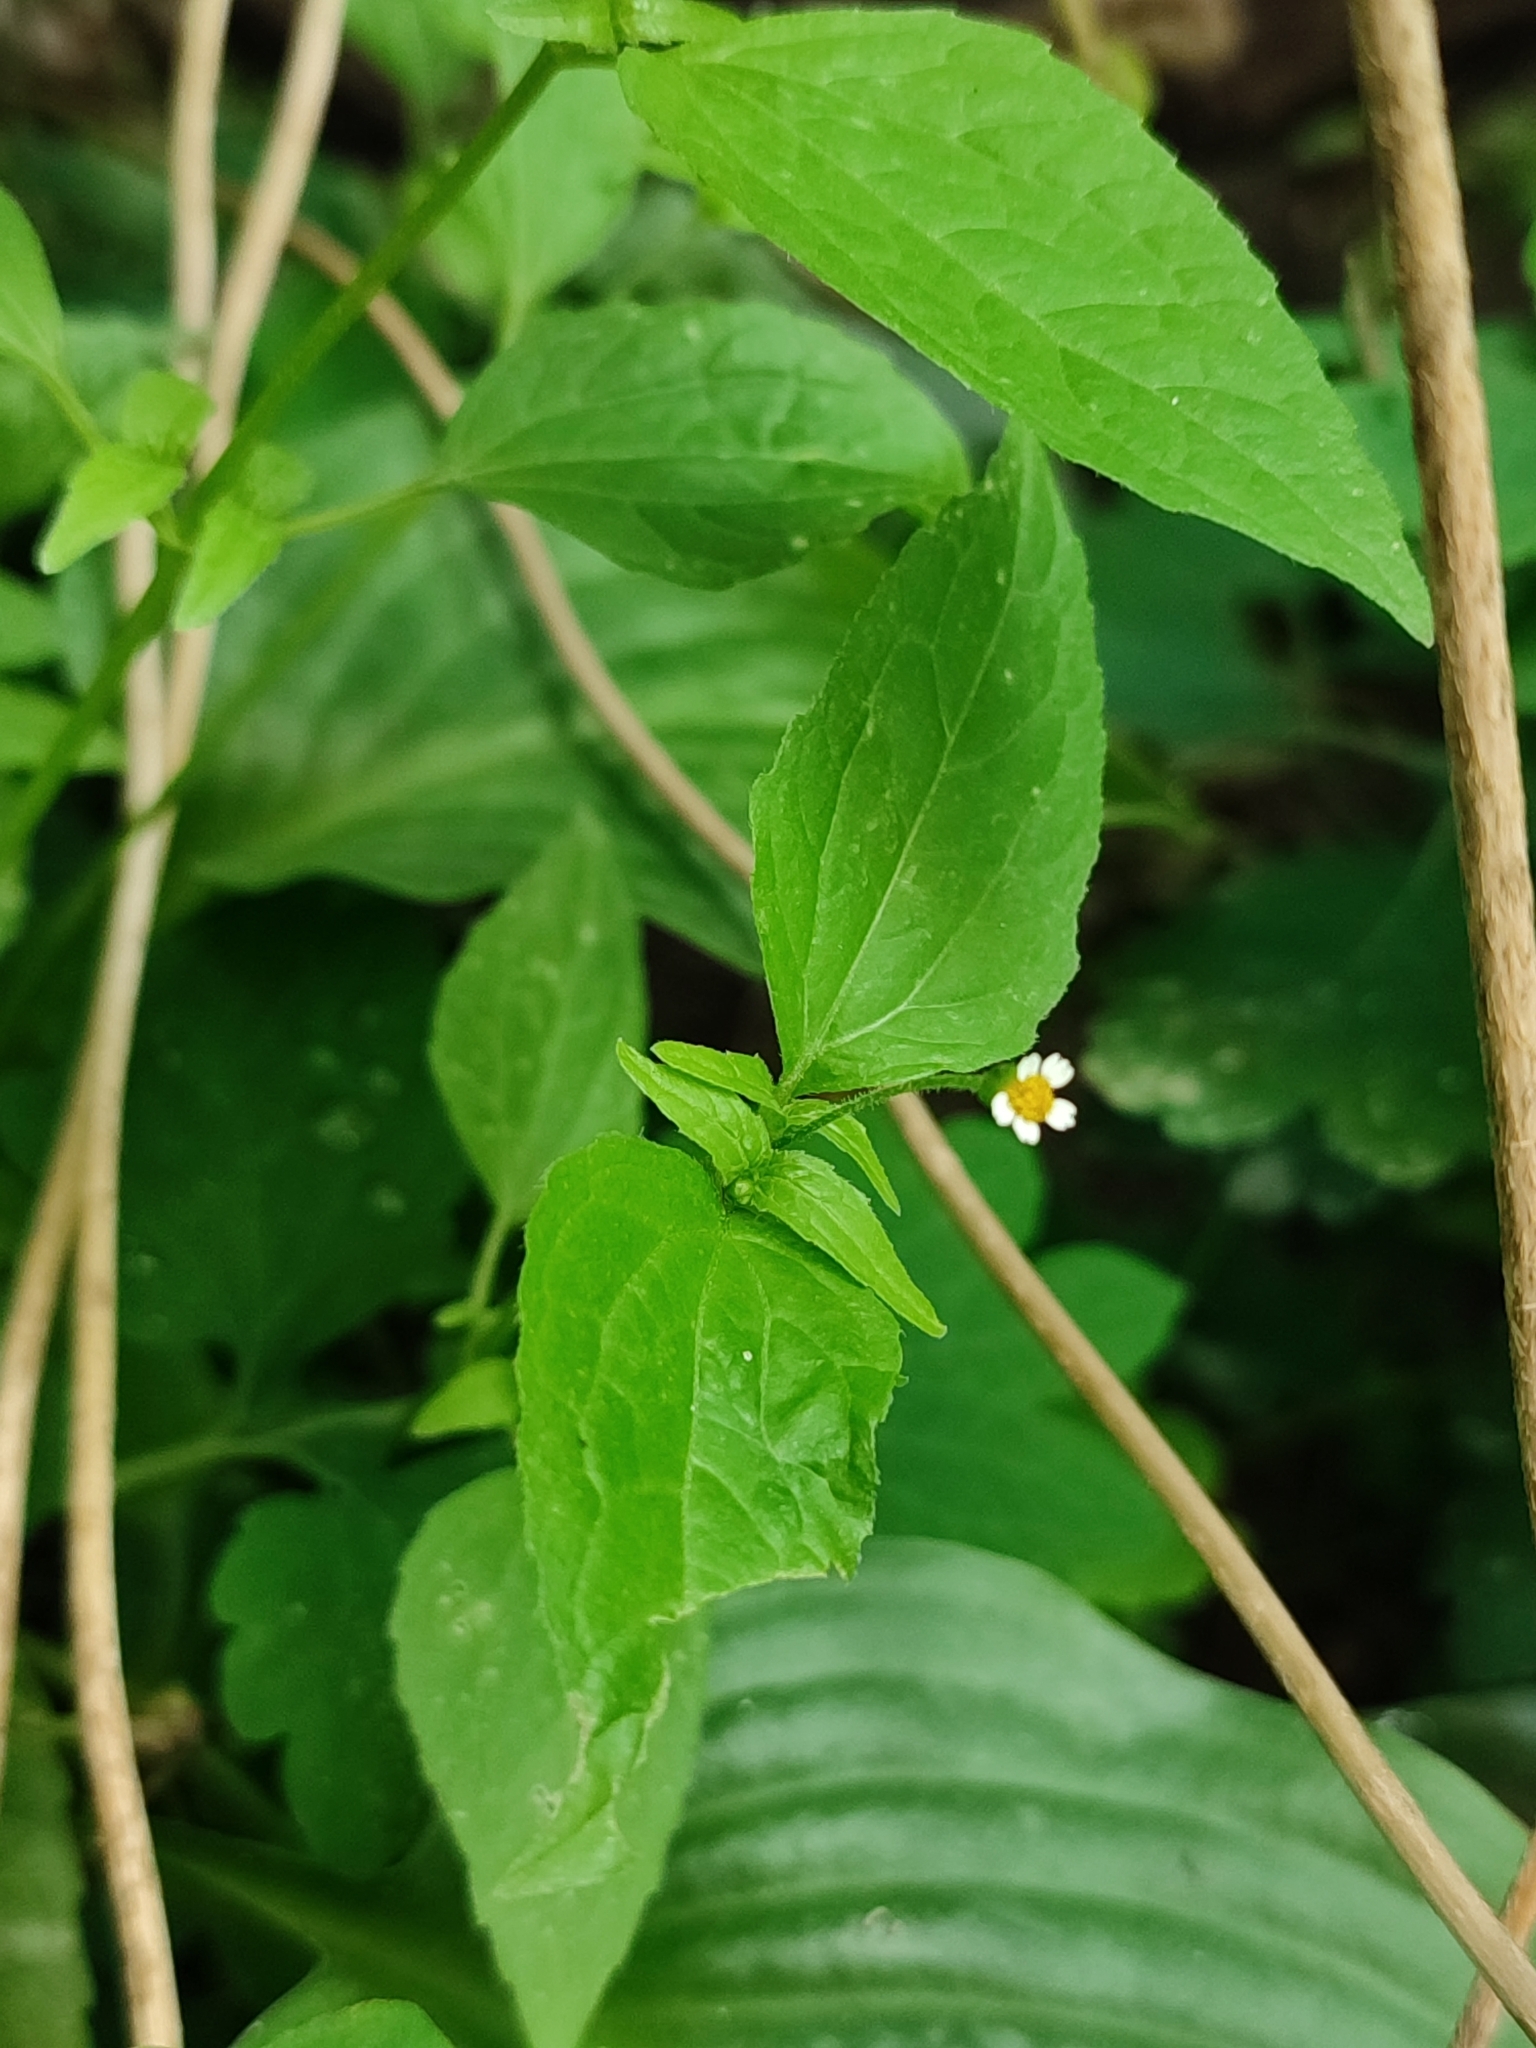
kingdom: Plantae
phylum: Tracheophyta
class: Magnoliopsida
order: Asterales
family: Asteraceae
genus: Galinsoga
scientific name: Galinsoga parviflora
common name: Gallant soldier
